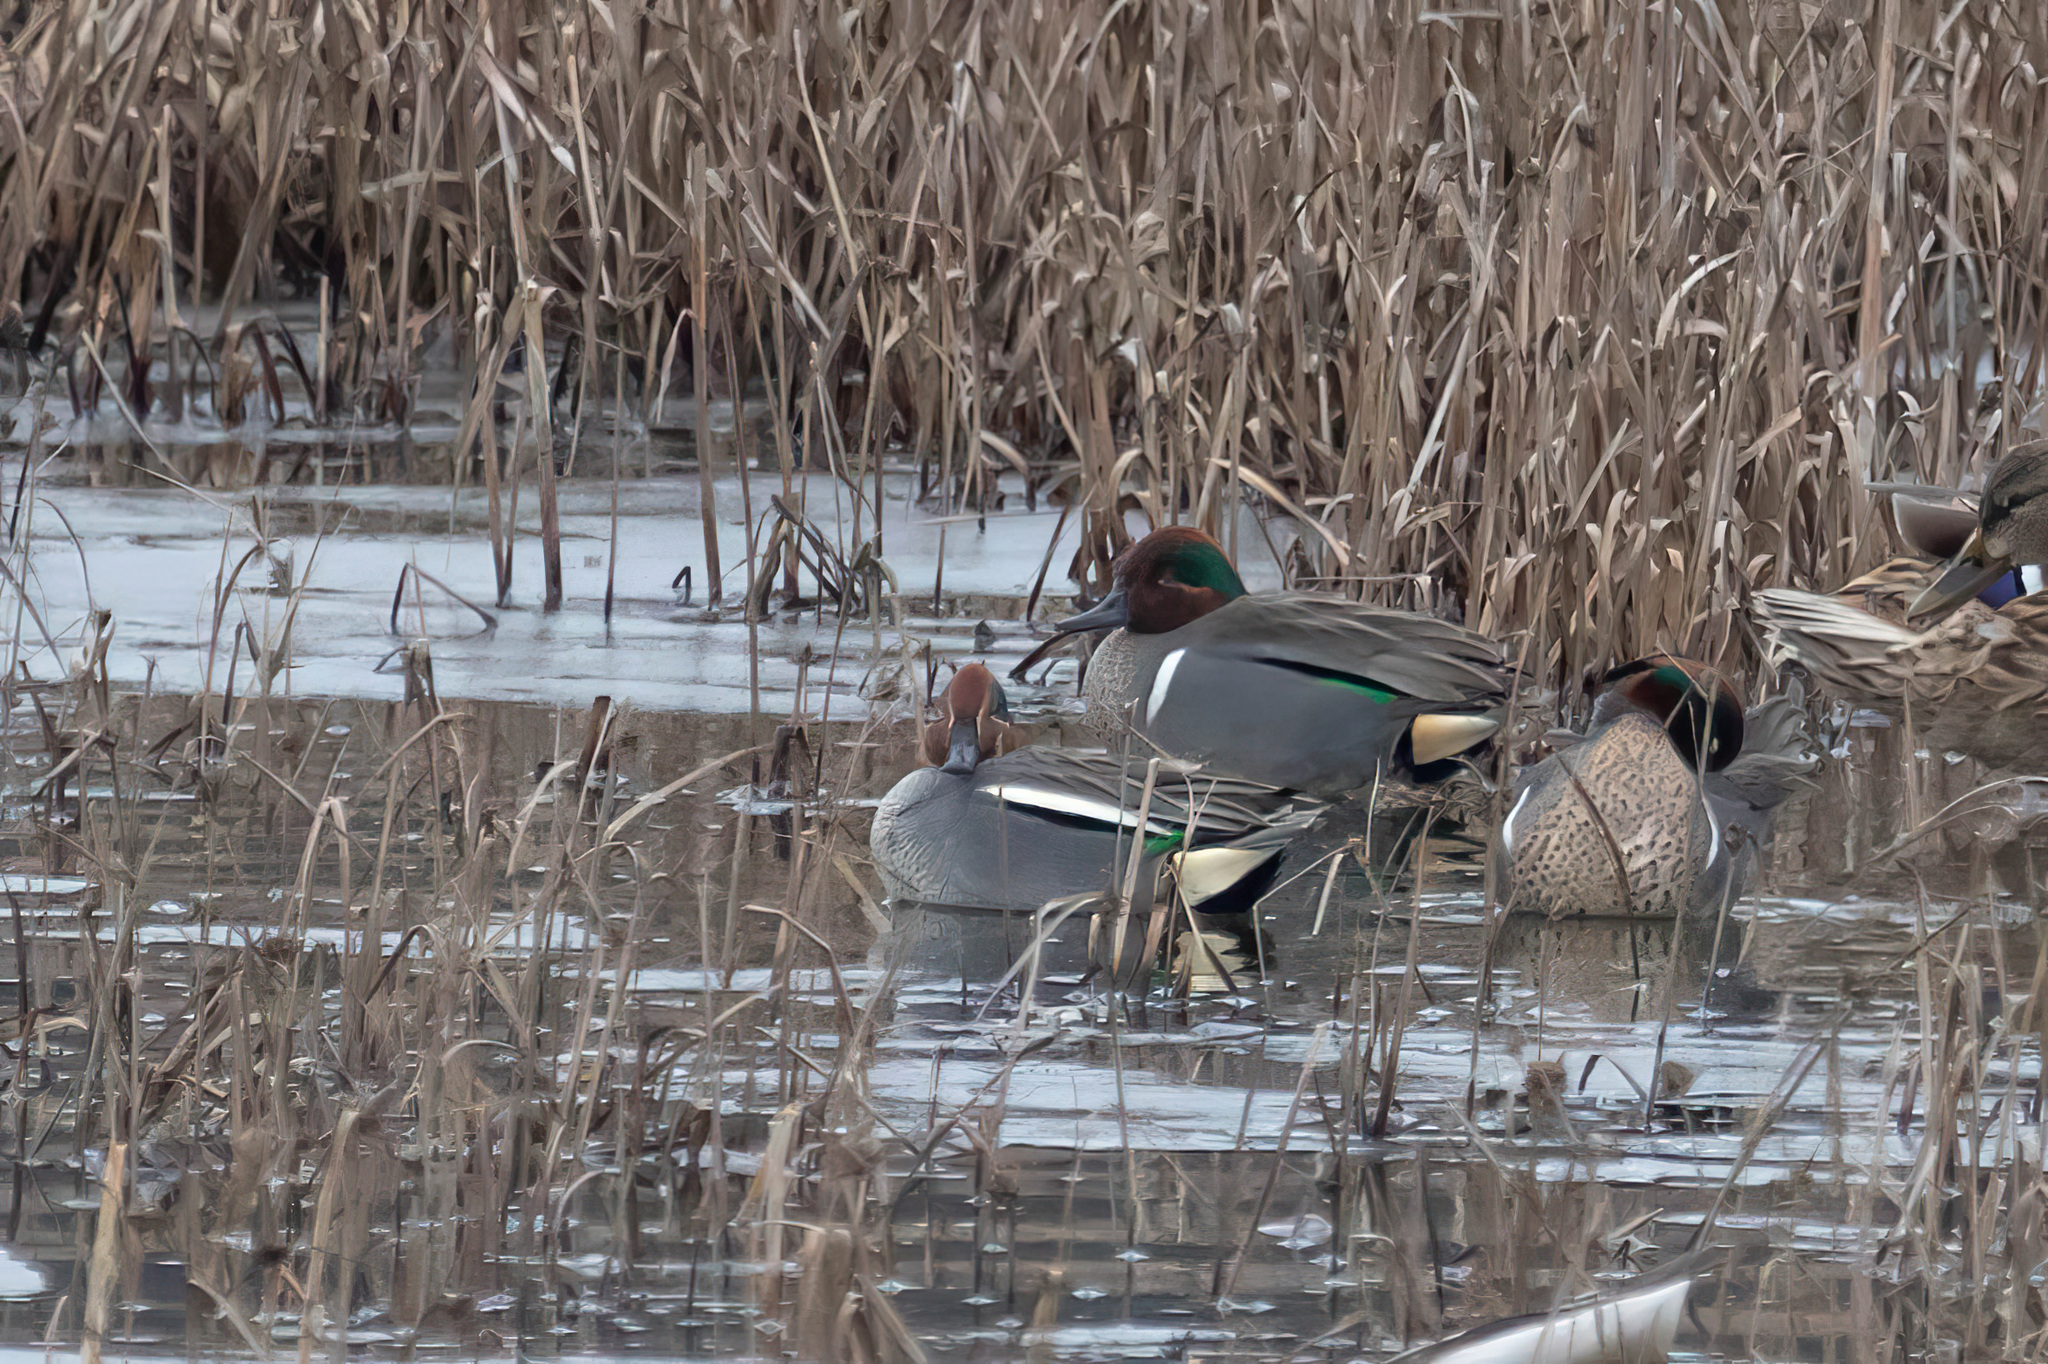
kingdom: Animalia
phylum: Chordata
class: Aves
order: Anseriformes
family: Anatidae
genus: Anas
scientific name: Anas crecca
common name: Eurasian teal
